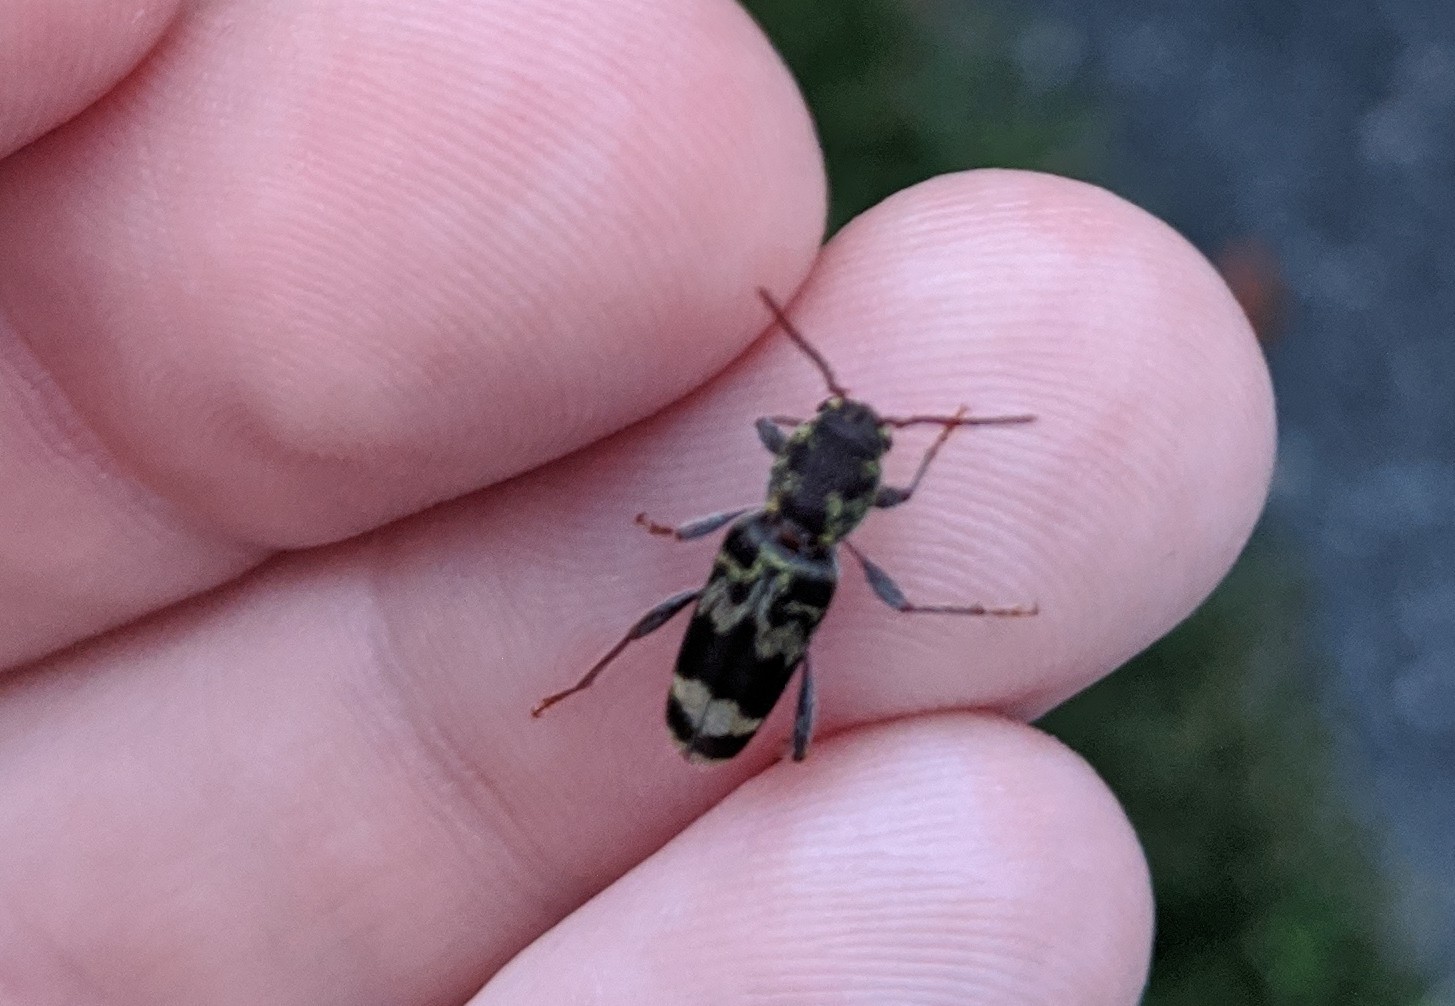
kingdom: Animalia
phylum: Arthropoda
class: Insecta
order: Coleoptera
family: Cerambycidae
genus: Xylotrechus
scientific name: Xylotrechus colonus
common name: Long-horned beetle
